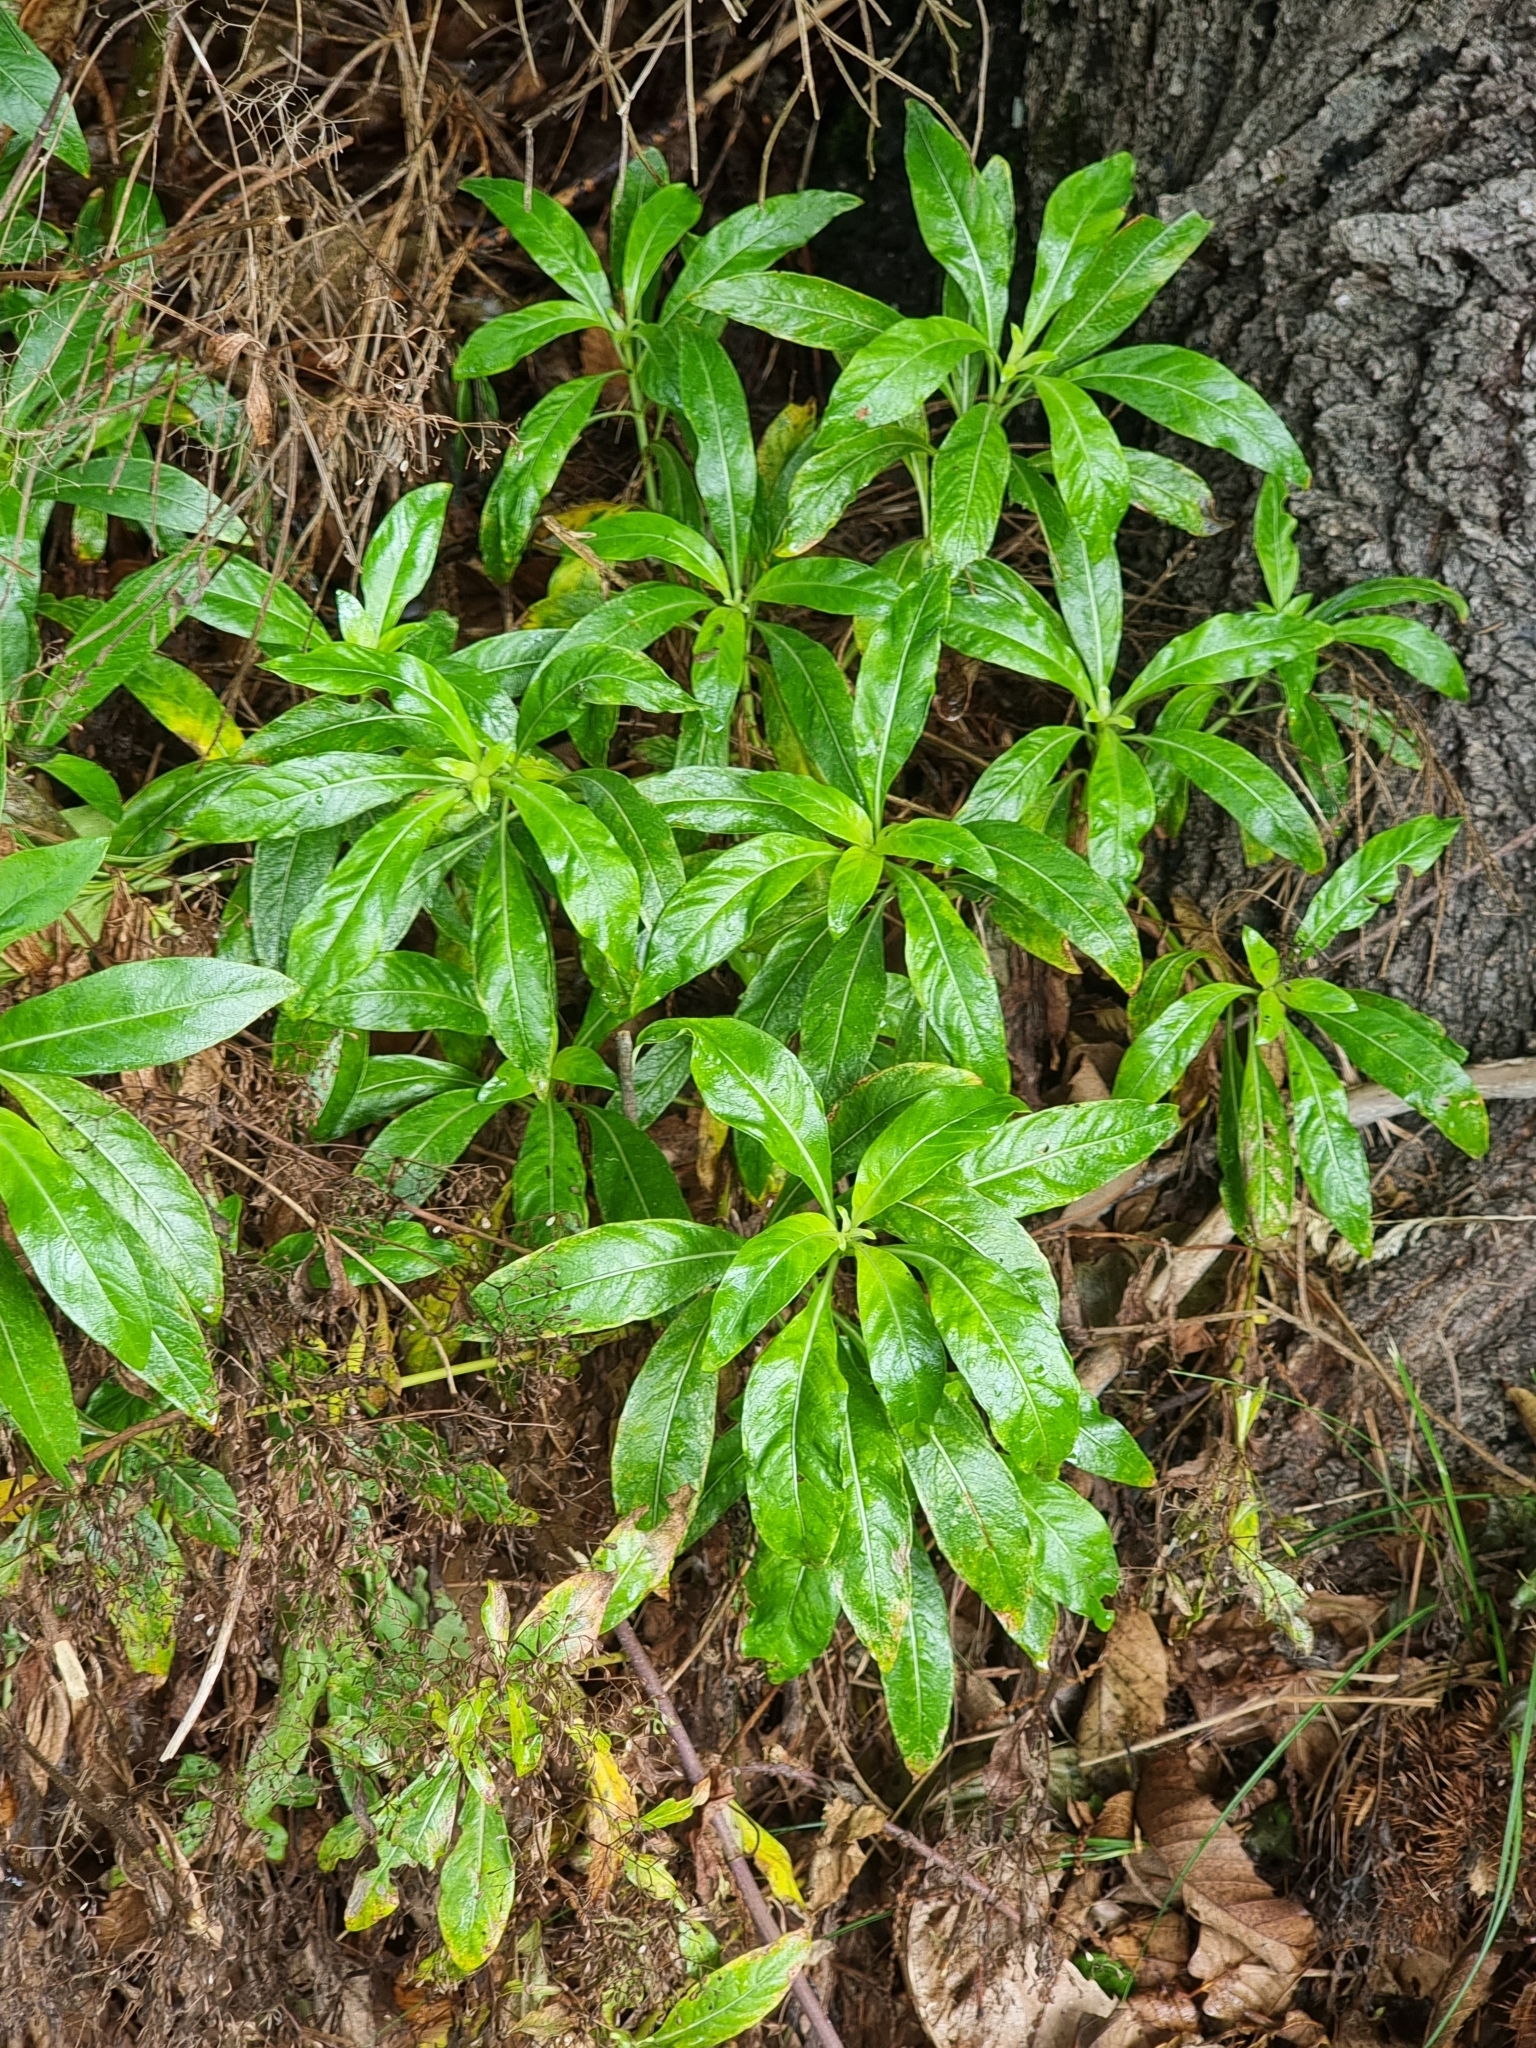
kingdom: Plantae
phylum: Tracheophyta
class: Magnoliopsida
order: Gentianales
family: Rubiaceae
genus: Phyllis
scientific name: Phyllis nobla
